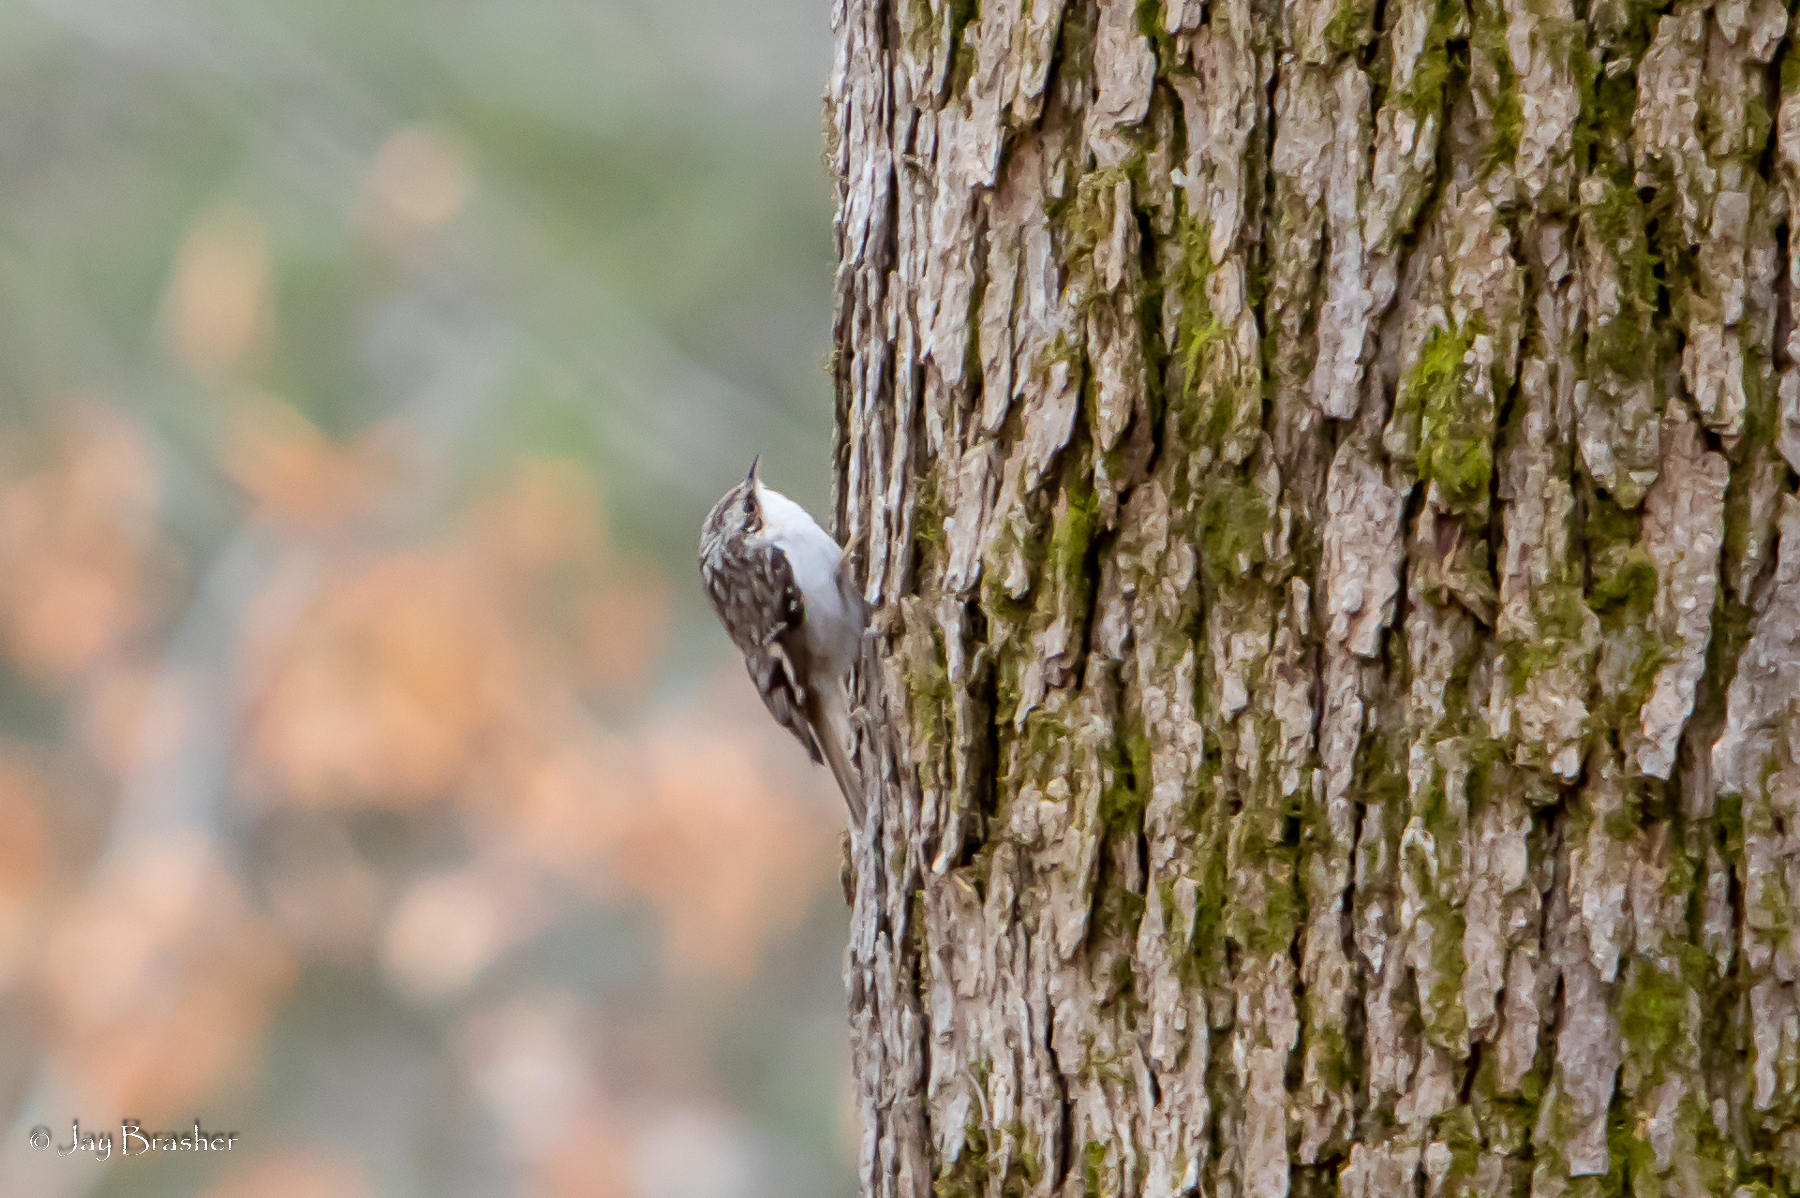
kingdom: Animalia
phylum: Chordata
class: Aves
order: Passeriformes
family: Certhiidae
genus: Certhia
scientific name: Certhia americana
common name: Brown creeper
